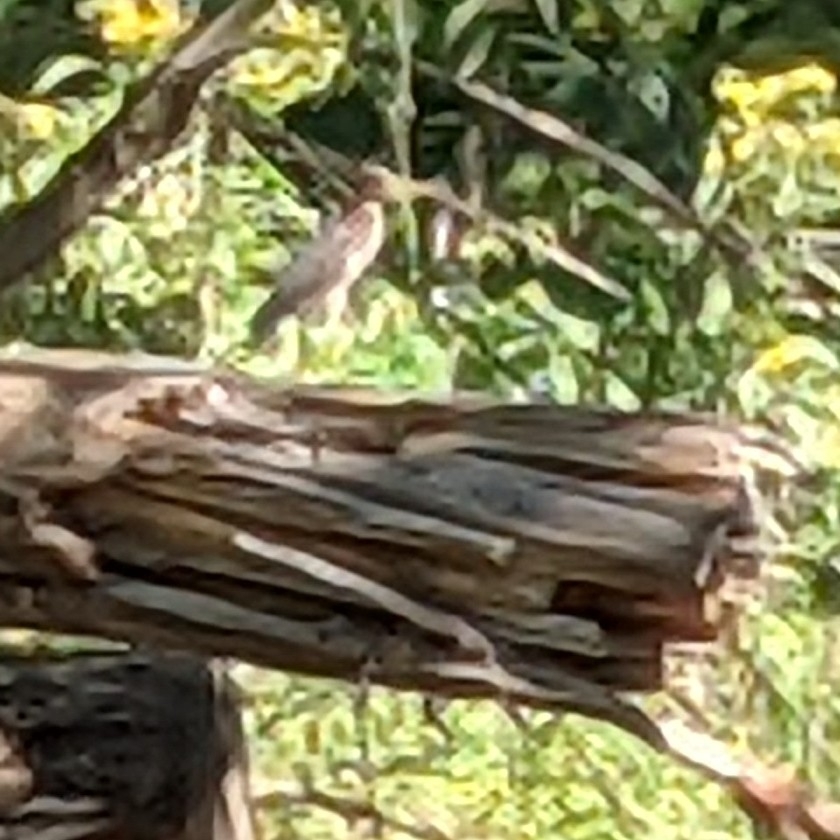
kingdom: Animalia
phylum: Chordata
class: Aves
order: Pelecaniformes
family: Ardeidae
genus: Butorides
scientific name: Butorides virescens
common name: Green heron
